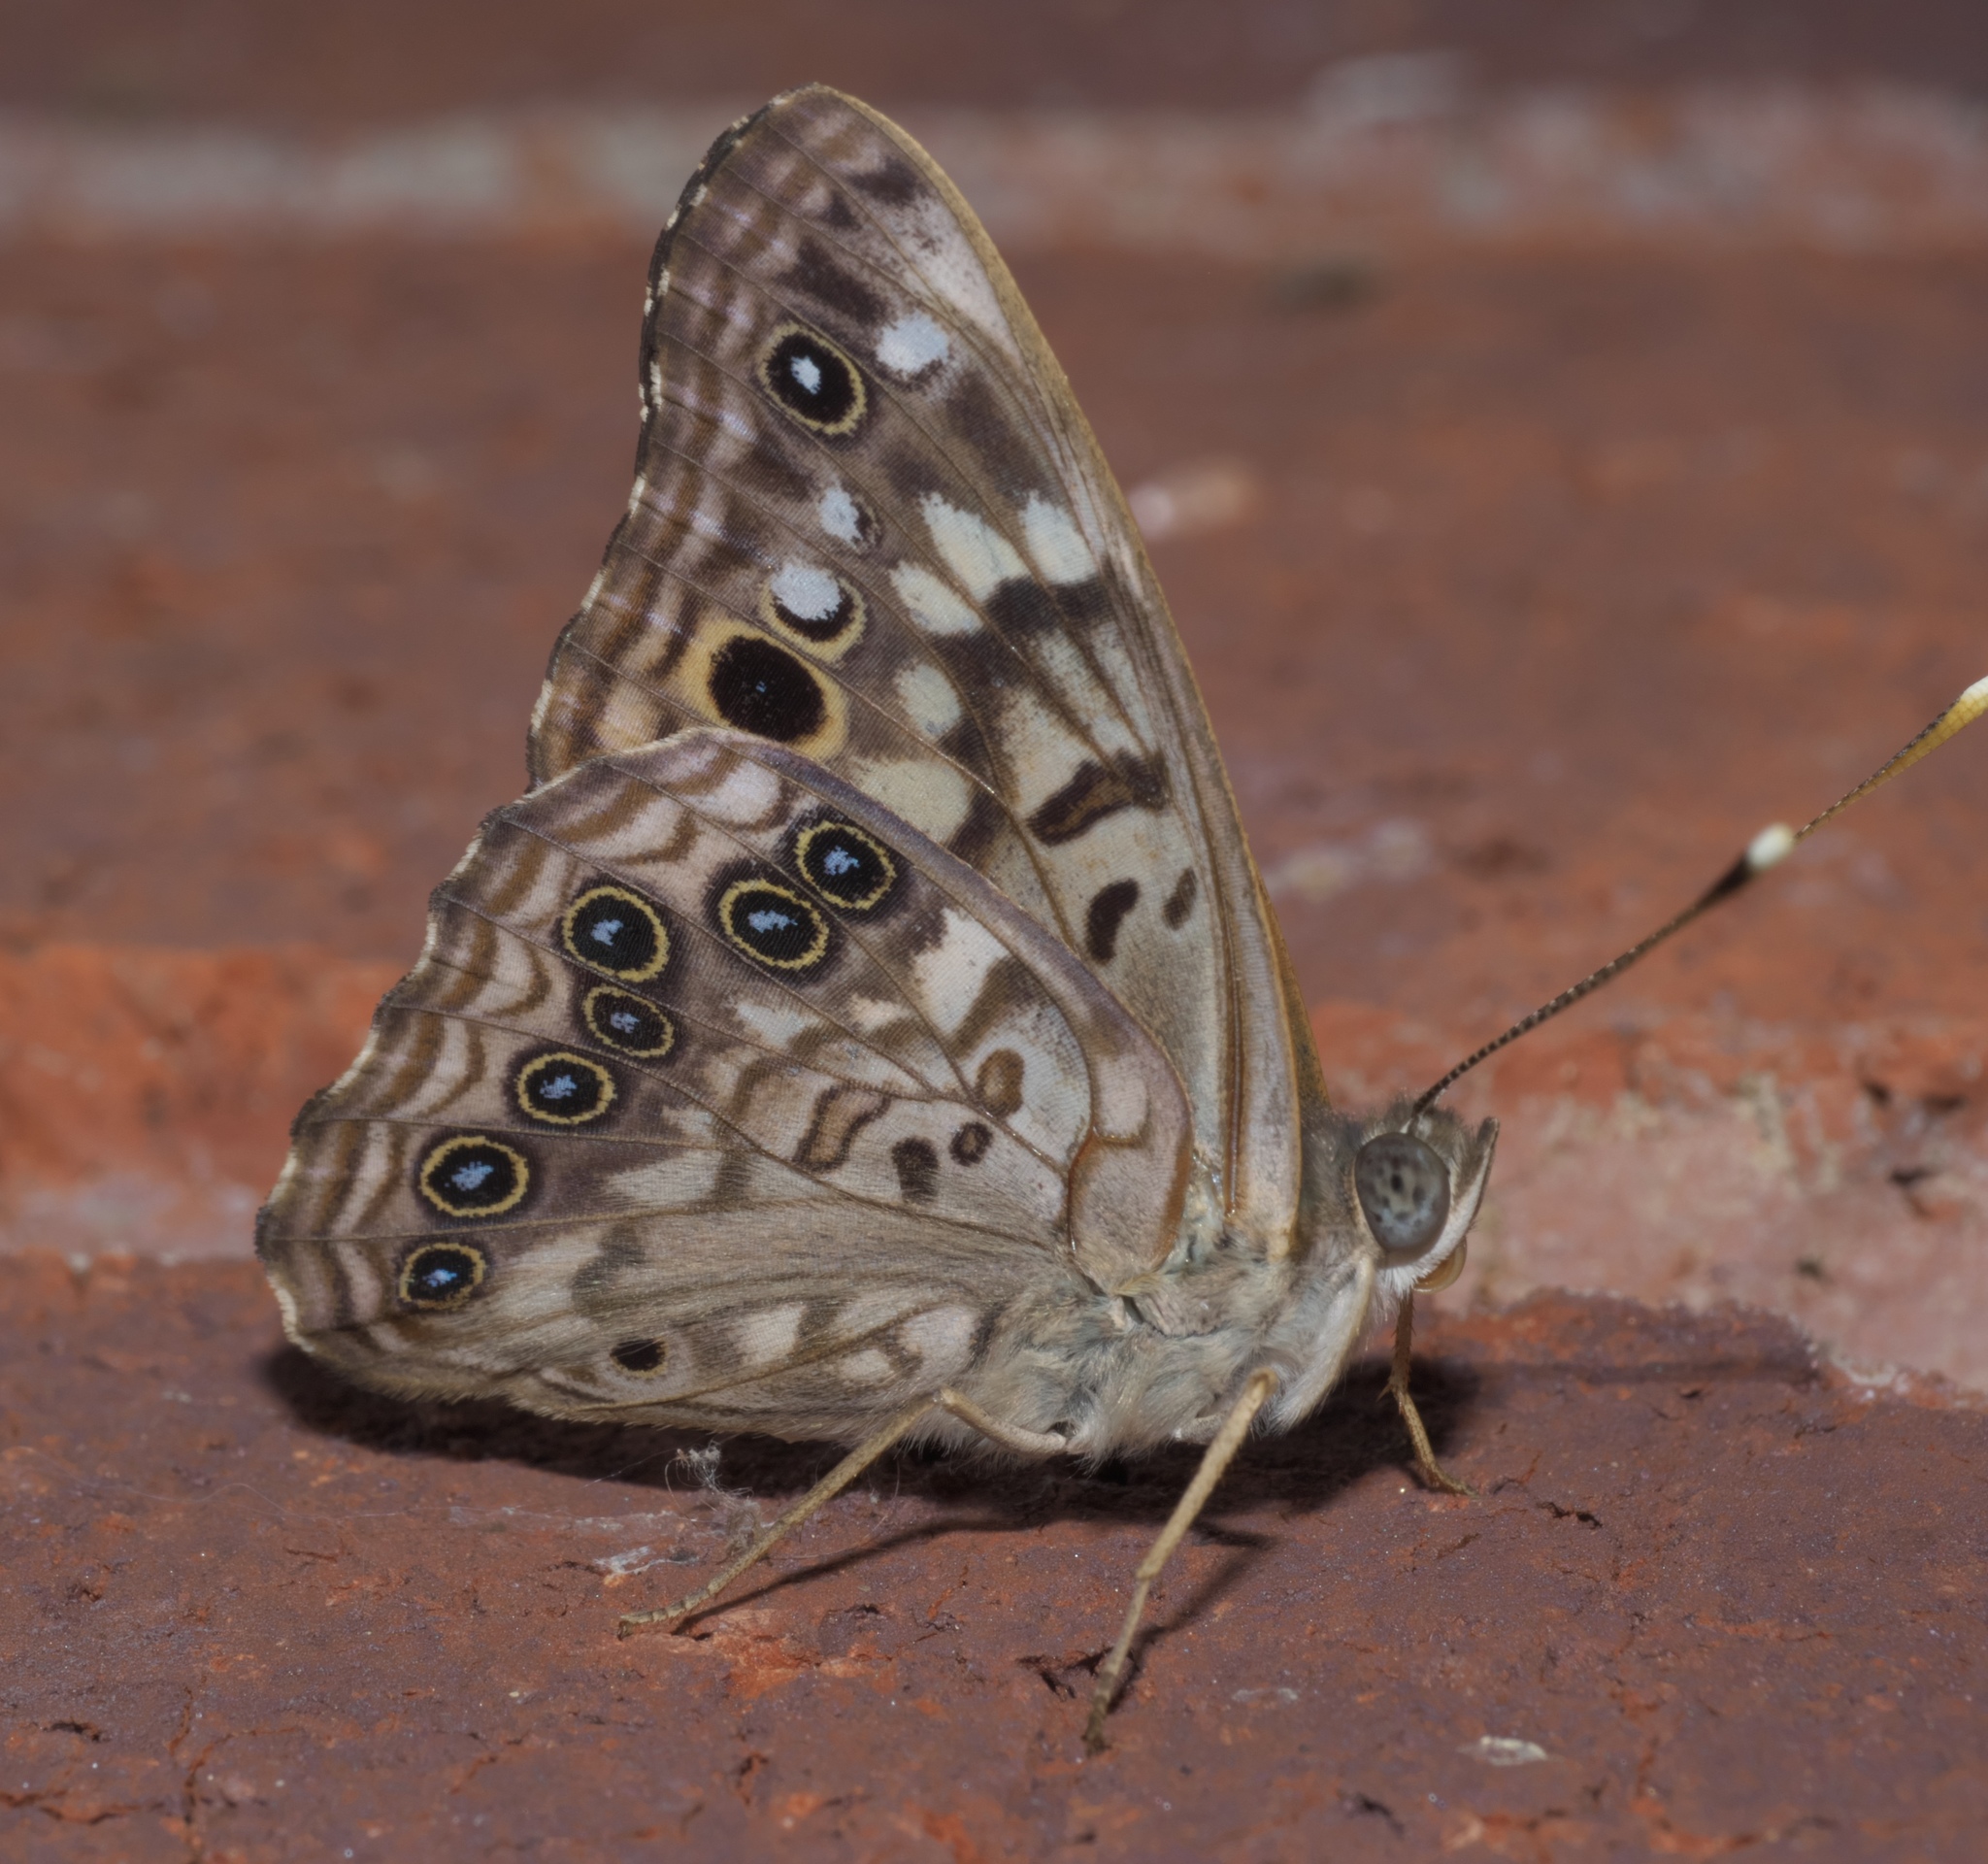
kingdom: Animalia
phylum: Arthropoda
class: Insecta
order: Lepidoptera
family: Nymphalidae
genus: Asterocampa
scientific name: Asterocampa celtis
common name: Hackberry emperor
